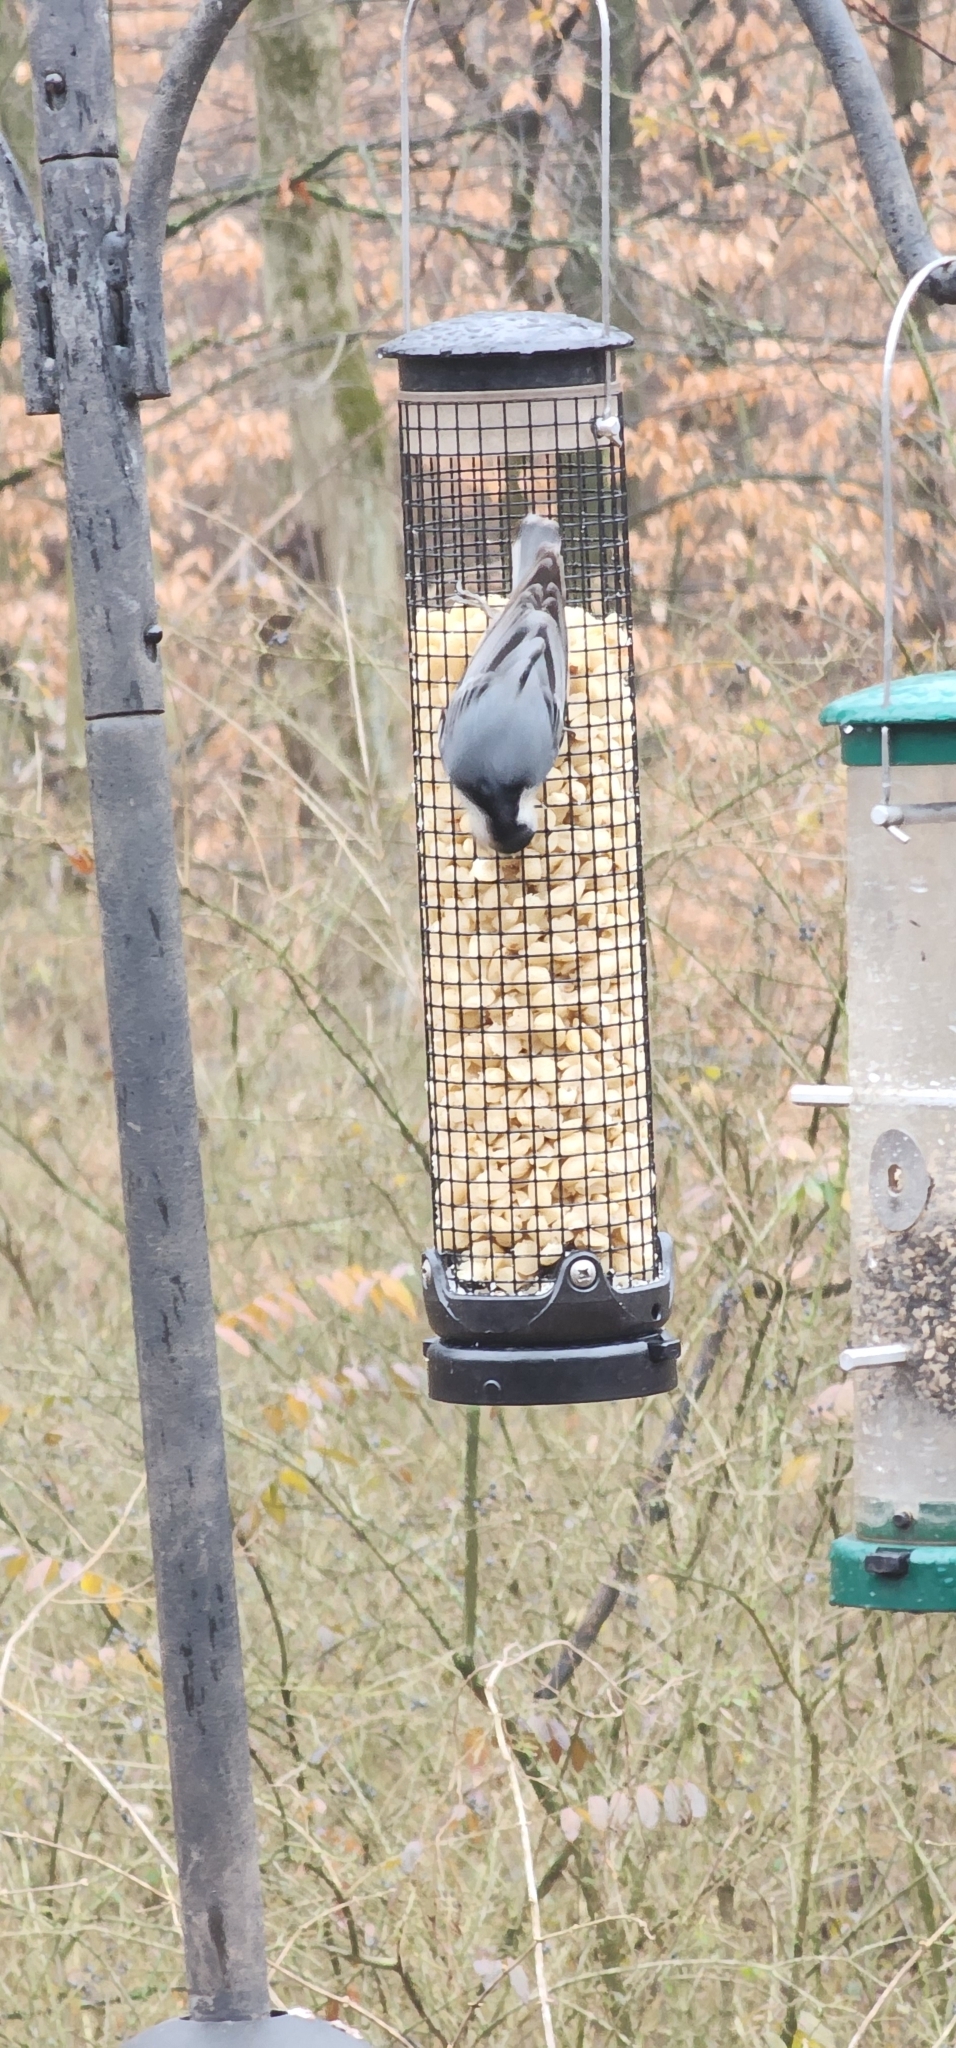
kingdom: Animalia
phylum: Chordata
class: Aves
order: Passeriformes
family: Sittidae
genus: Sitta
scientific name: Sitta carolinensis
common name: White-breasted nuthatch
